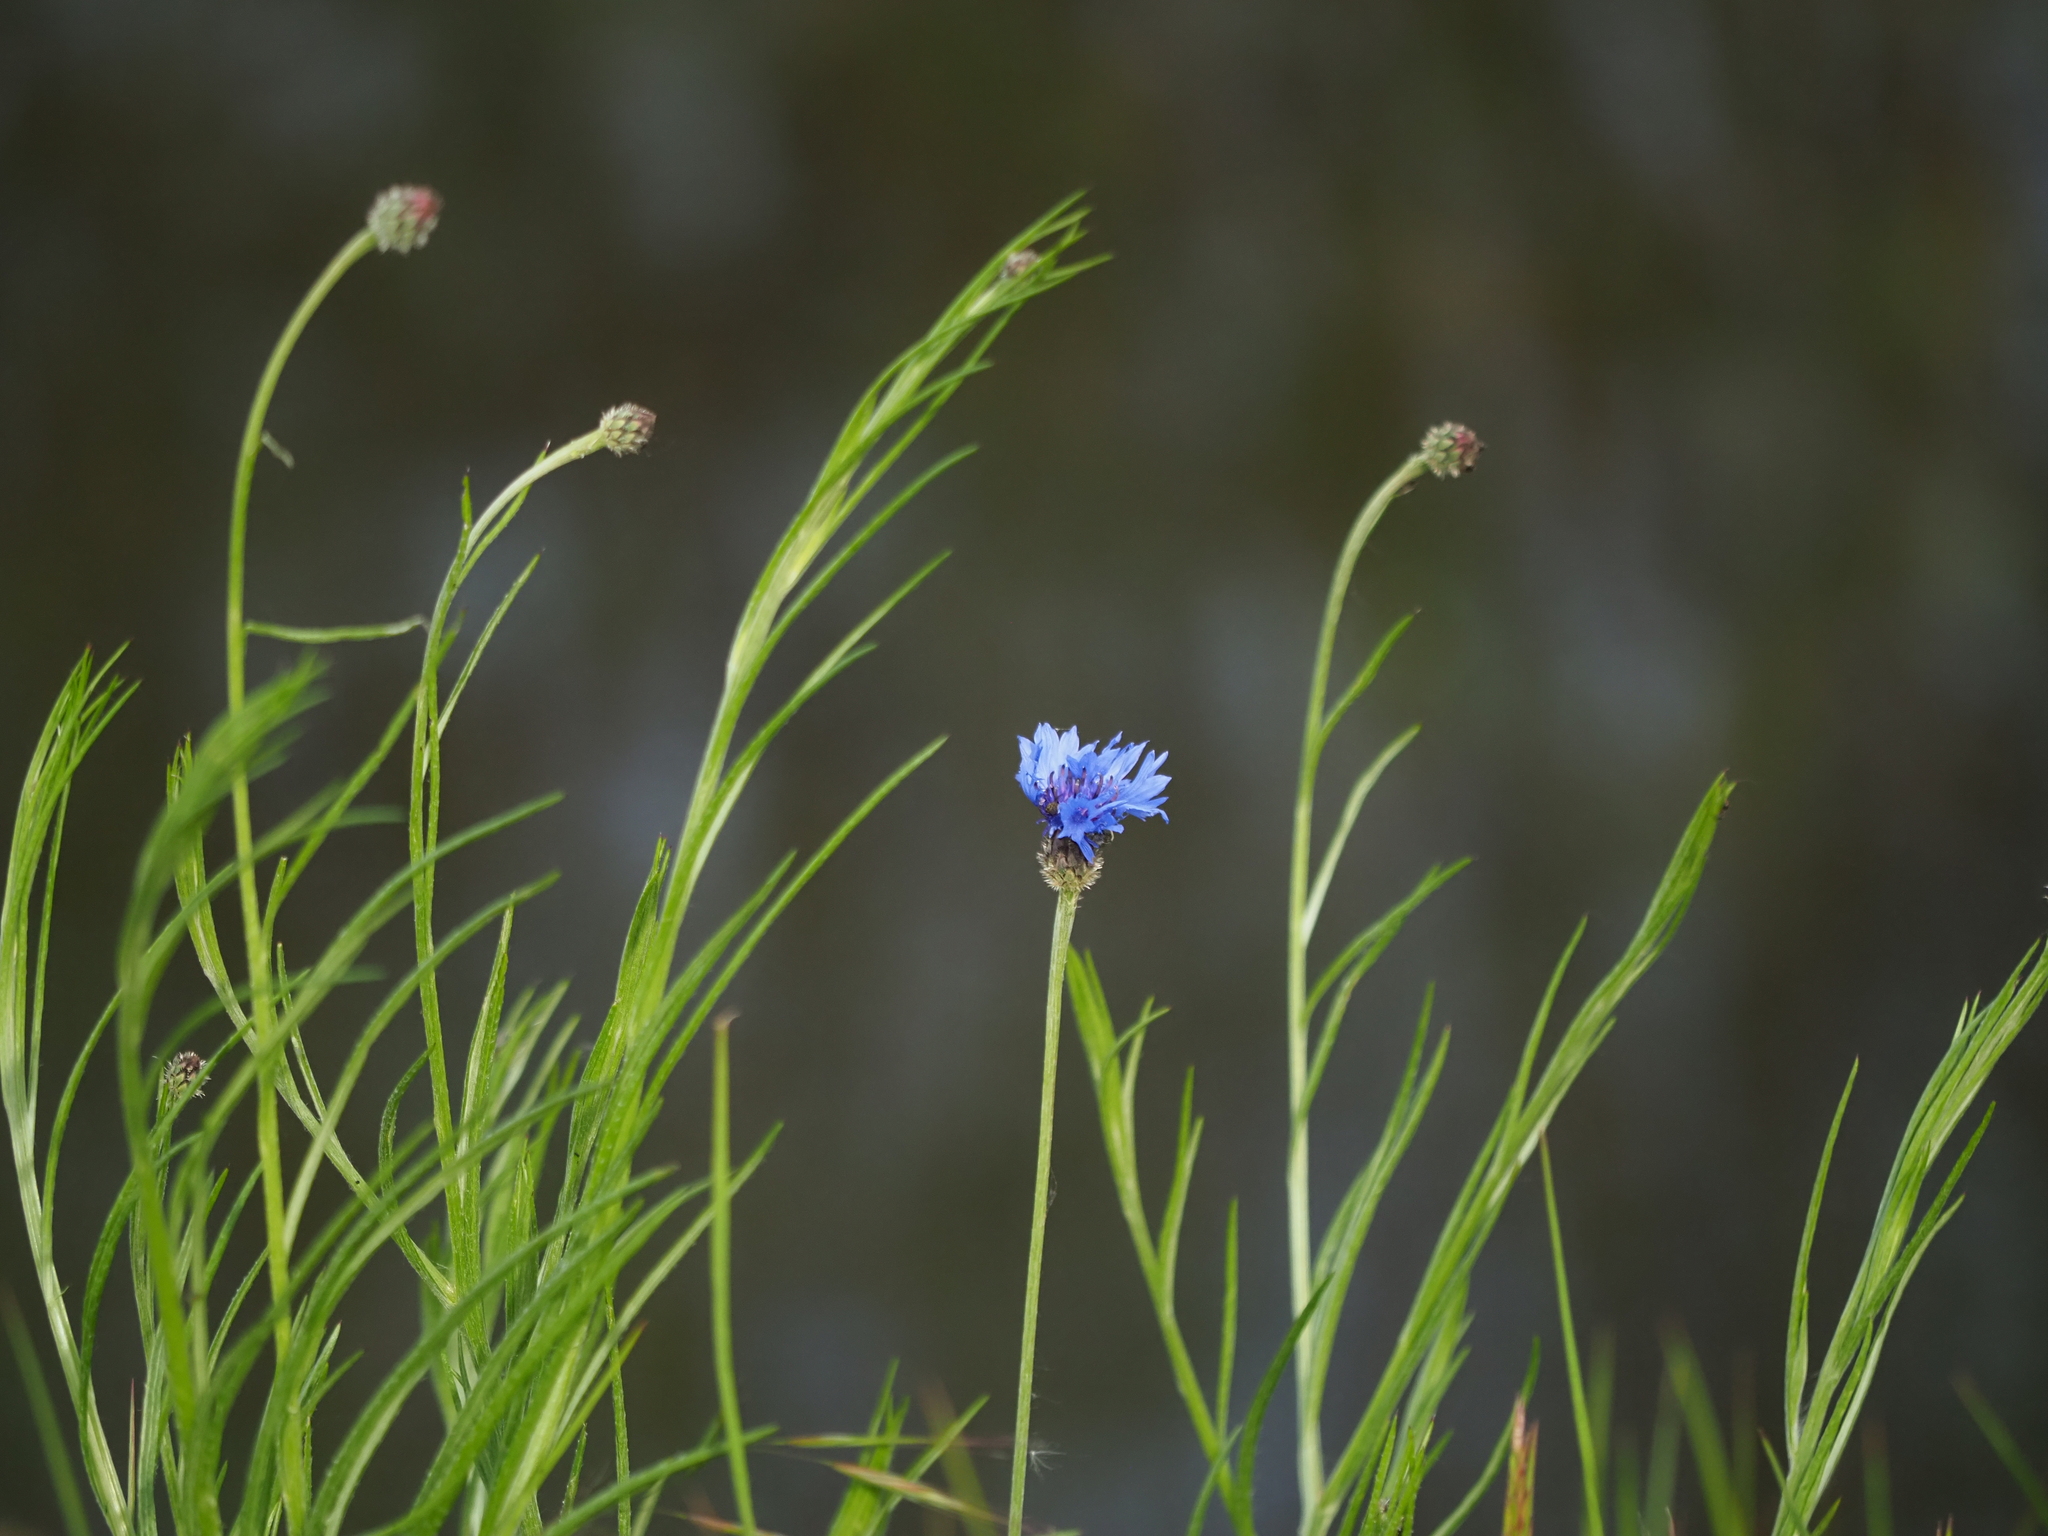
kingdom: Plantae
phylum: Tracheophyta
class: Magnoliopsida
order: Asterales
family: Asteraceae
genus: Centaurea
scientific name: Centaurea cyanus
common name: Cornflower
